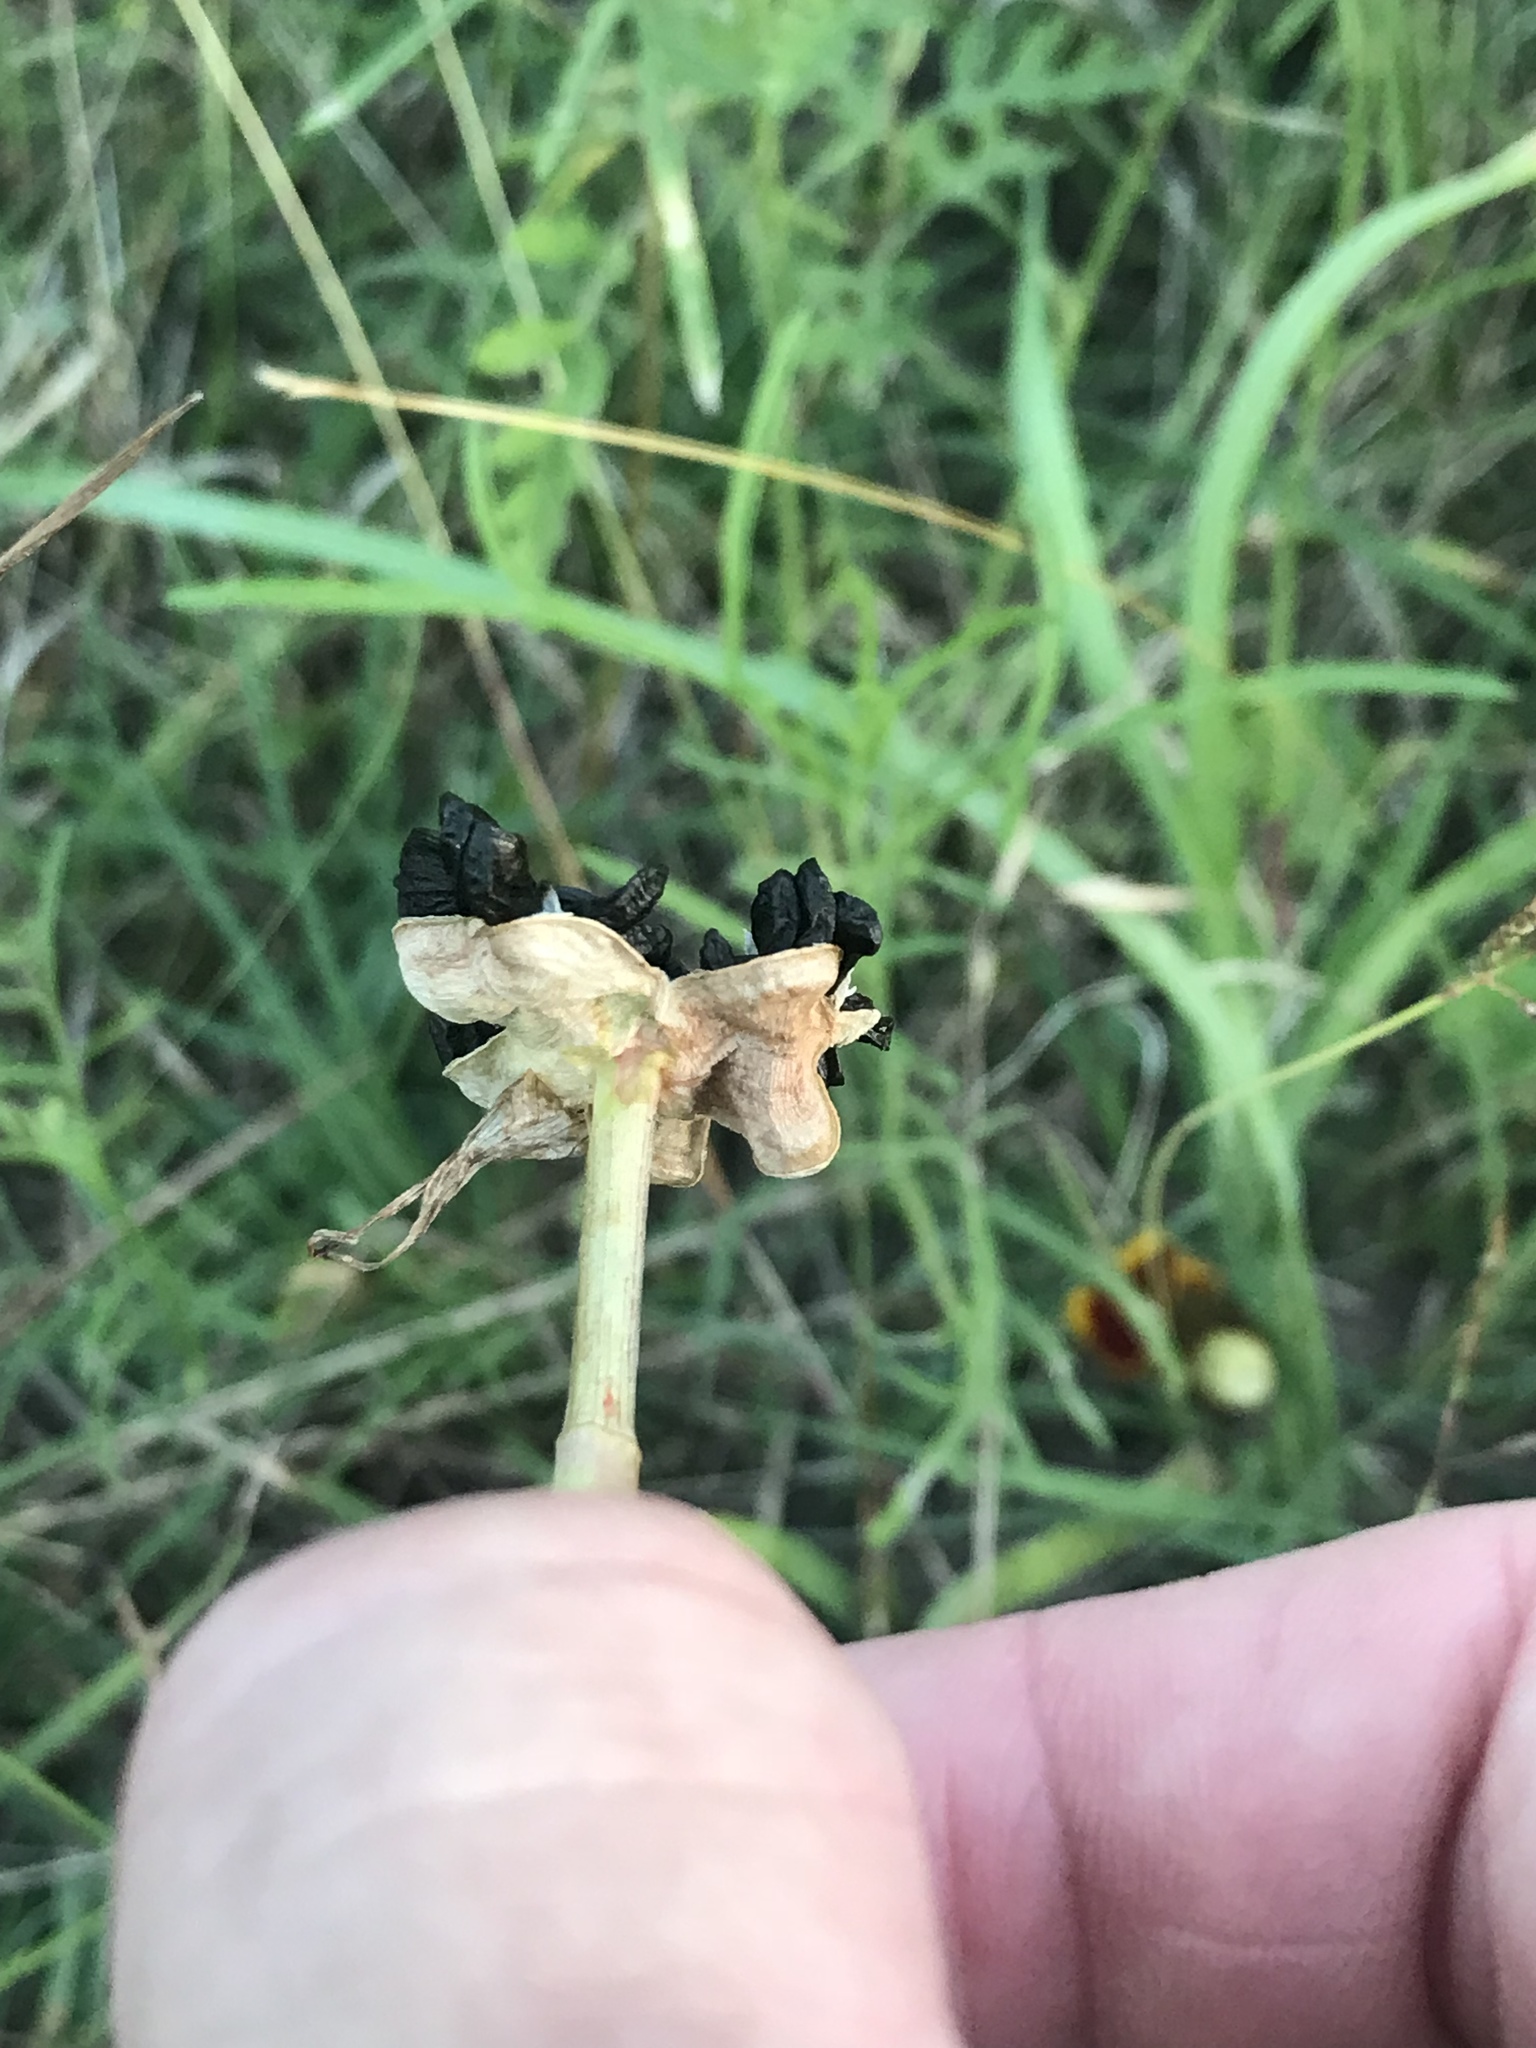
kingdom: Plantae
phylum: Tracheophyta
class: Liliopsida
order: Asparagales
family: Amaryllidaceae
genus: Zephyranthes
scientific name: Zephyranthes drummondii
